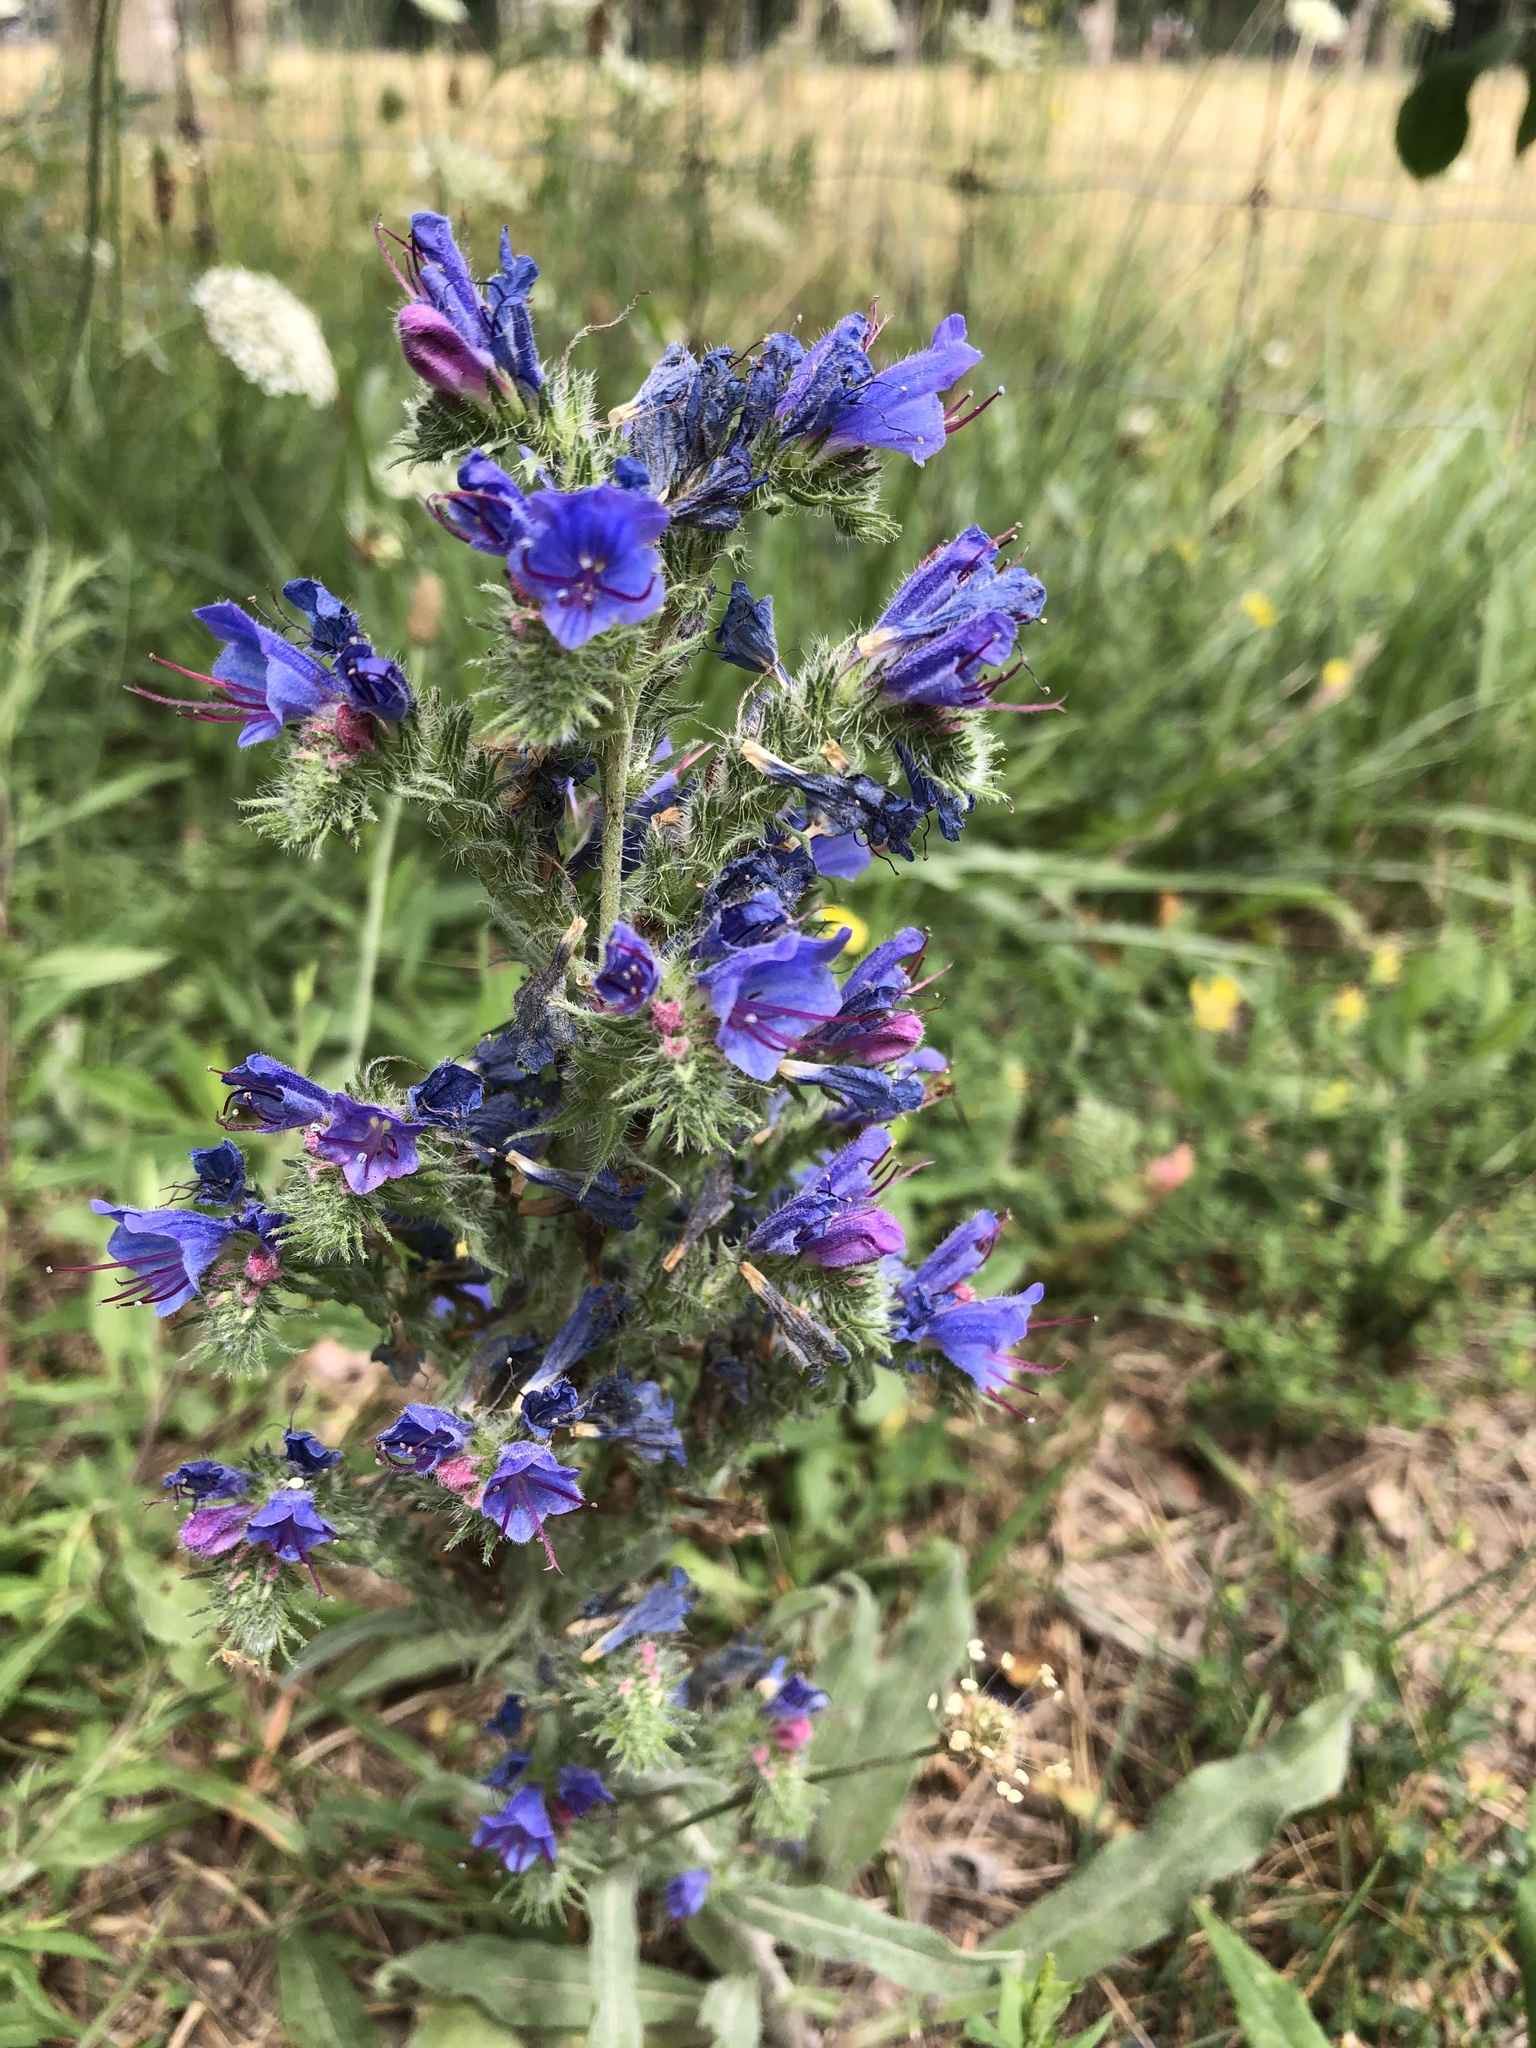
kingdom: Plantae
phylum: Tracheophyta
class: Magnoliopsida
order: Boraginales
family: Boraginaceae
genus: Echium
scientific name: Echium vulgare
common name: Common viper's bugloss
